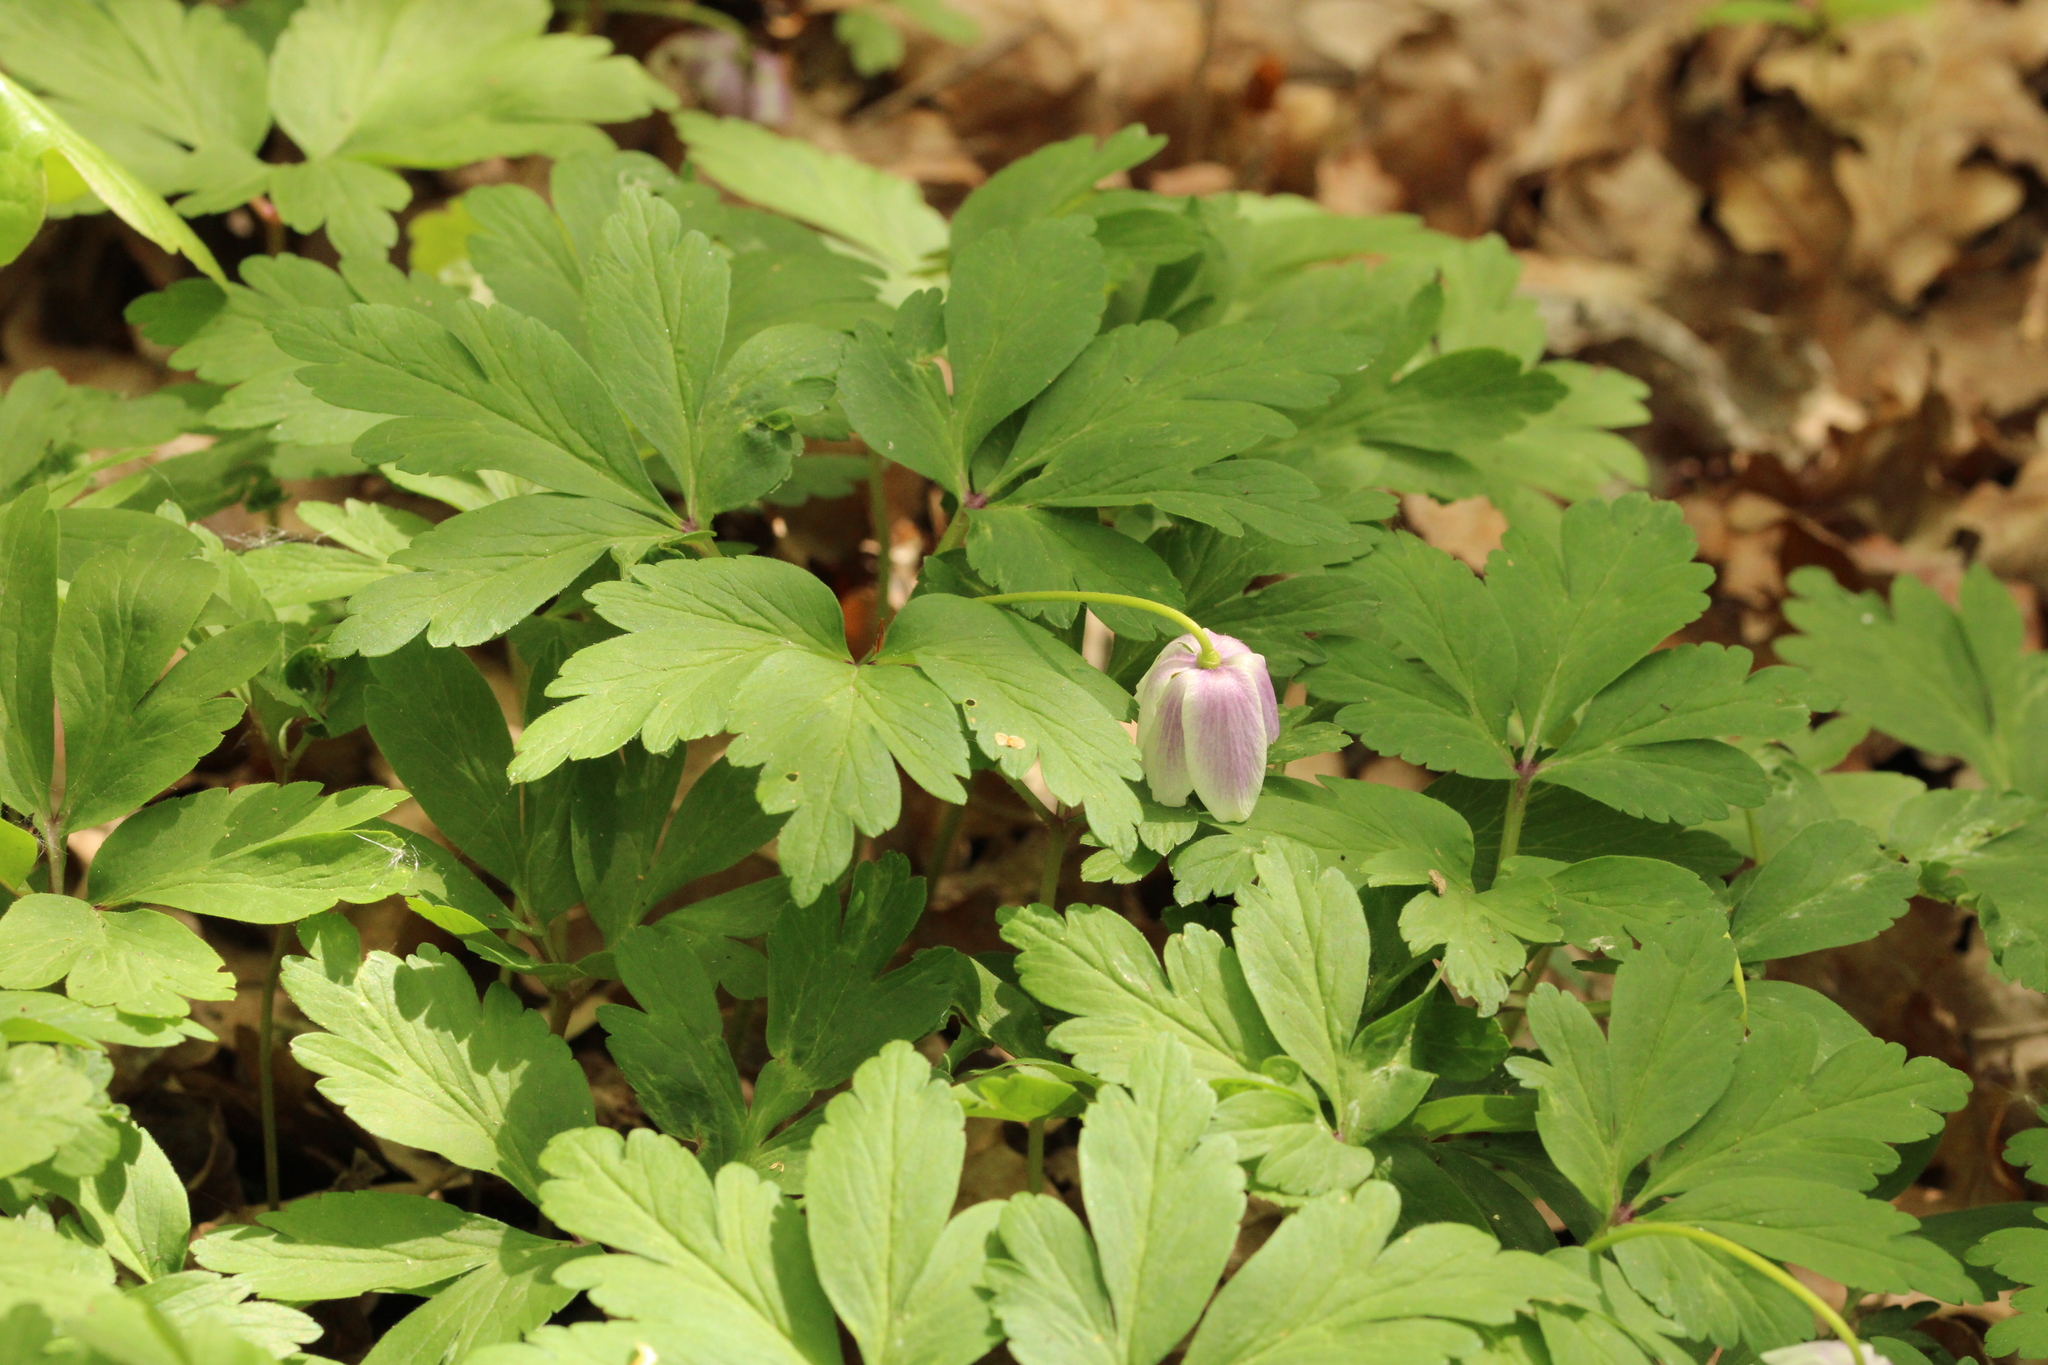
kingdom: Plantae
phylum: Tracheophyta
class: Magnoliopsida
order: Ranunculales
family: Ranunculaceae
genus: Anemone
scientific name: Anemone nemorosa
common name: Wood anemone
